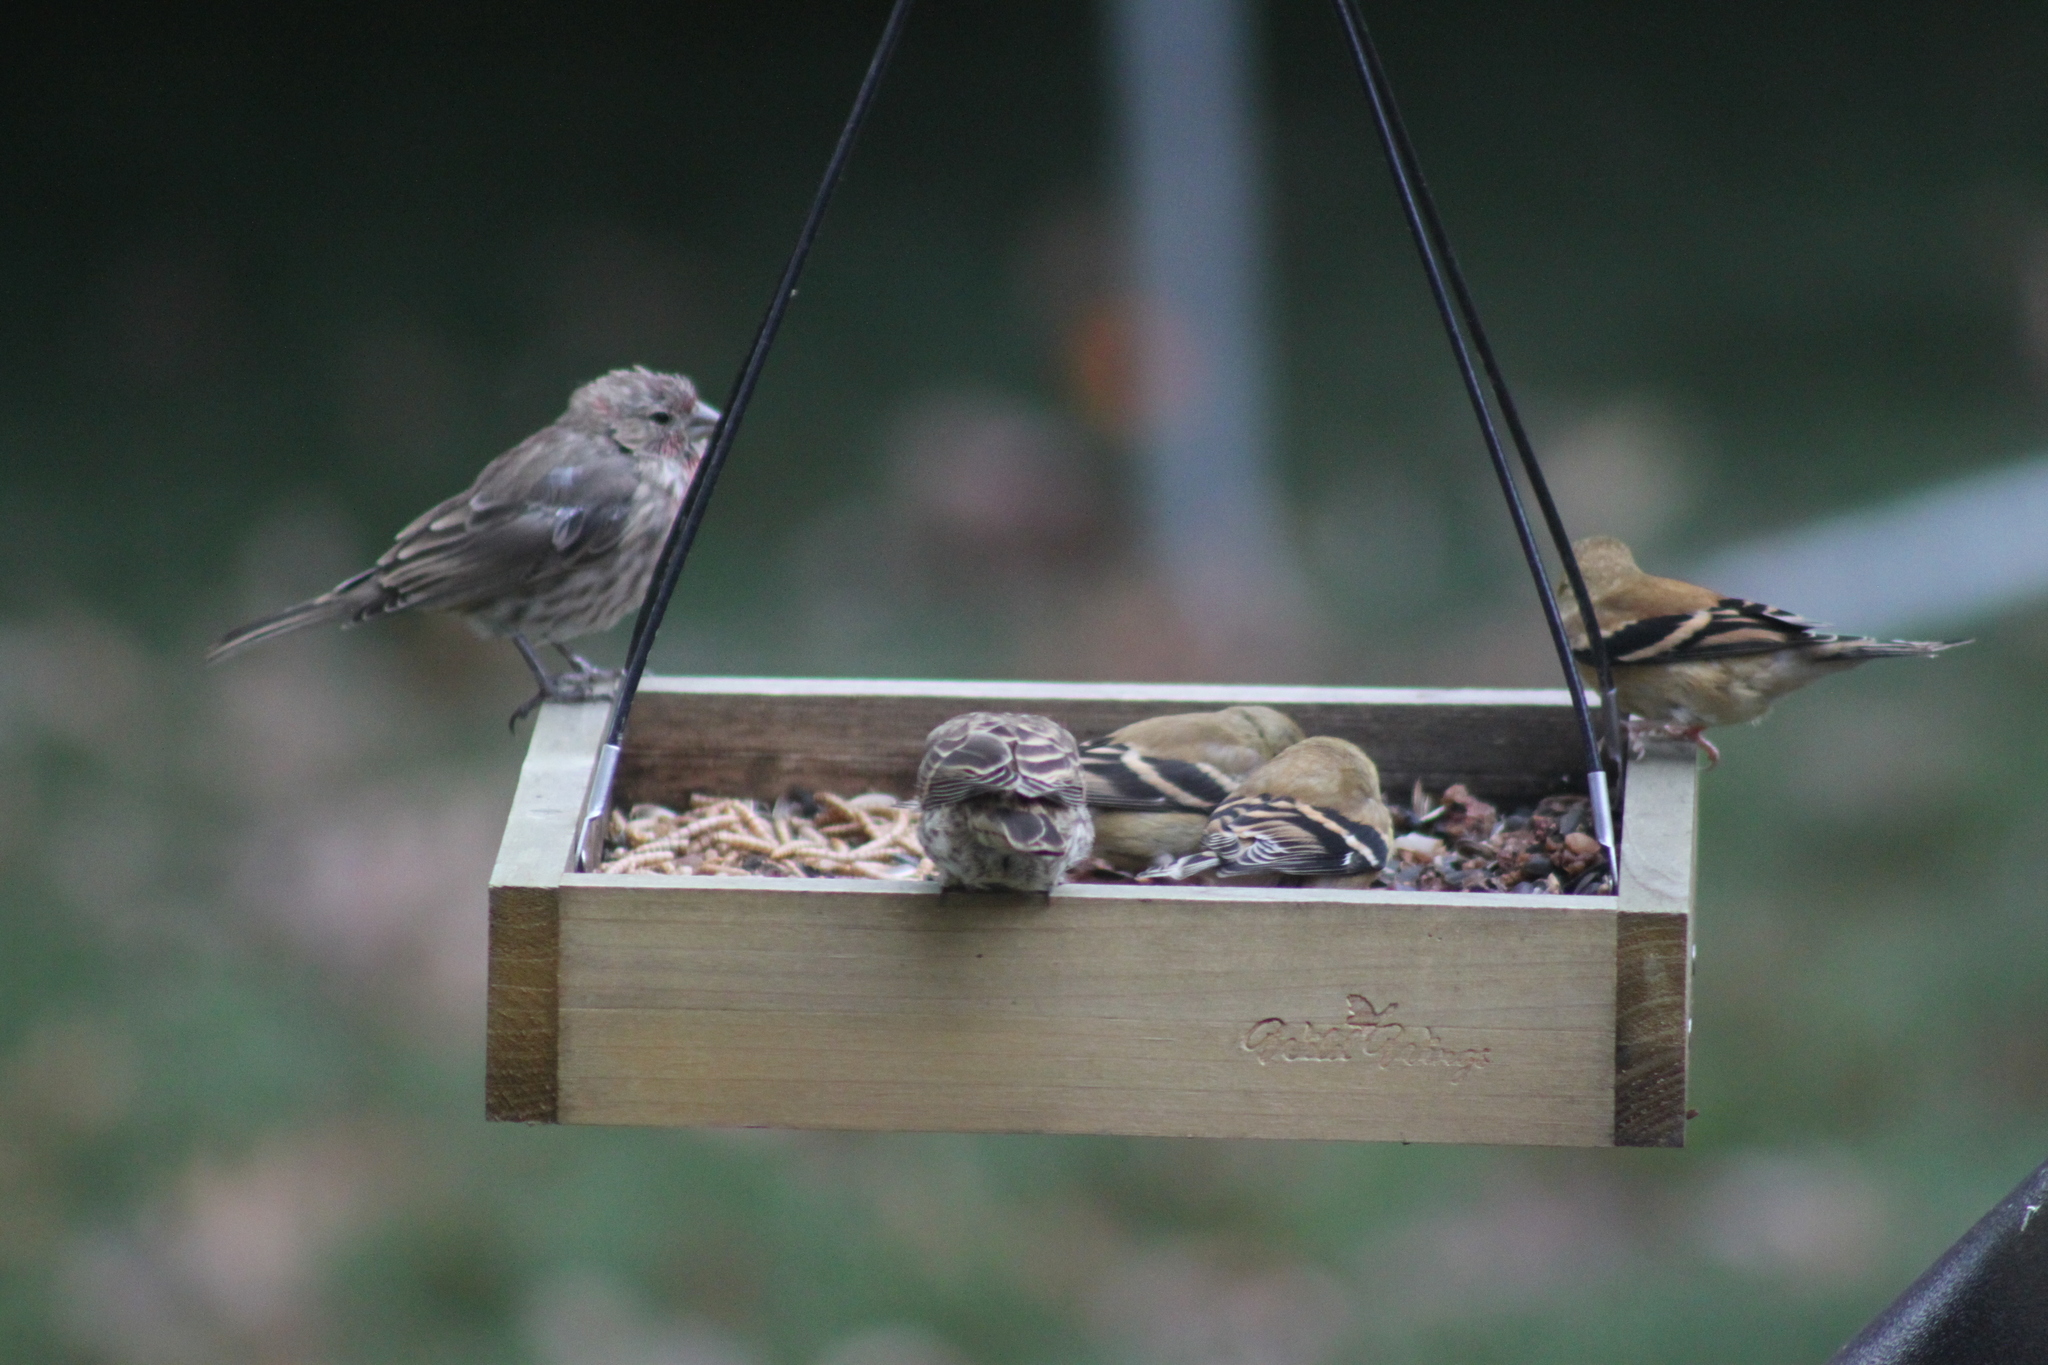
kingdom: Animalia
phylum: Chordata
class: Aves
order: Passeriformes
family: Fringillidae
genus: Spinus
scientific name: Spinus tristis
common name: American goldfinch
